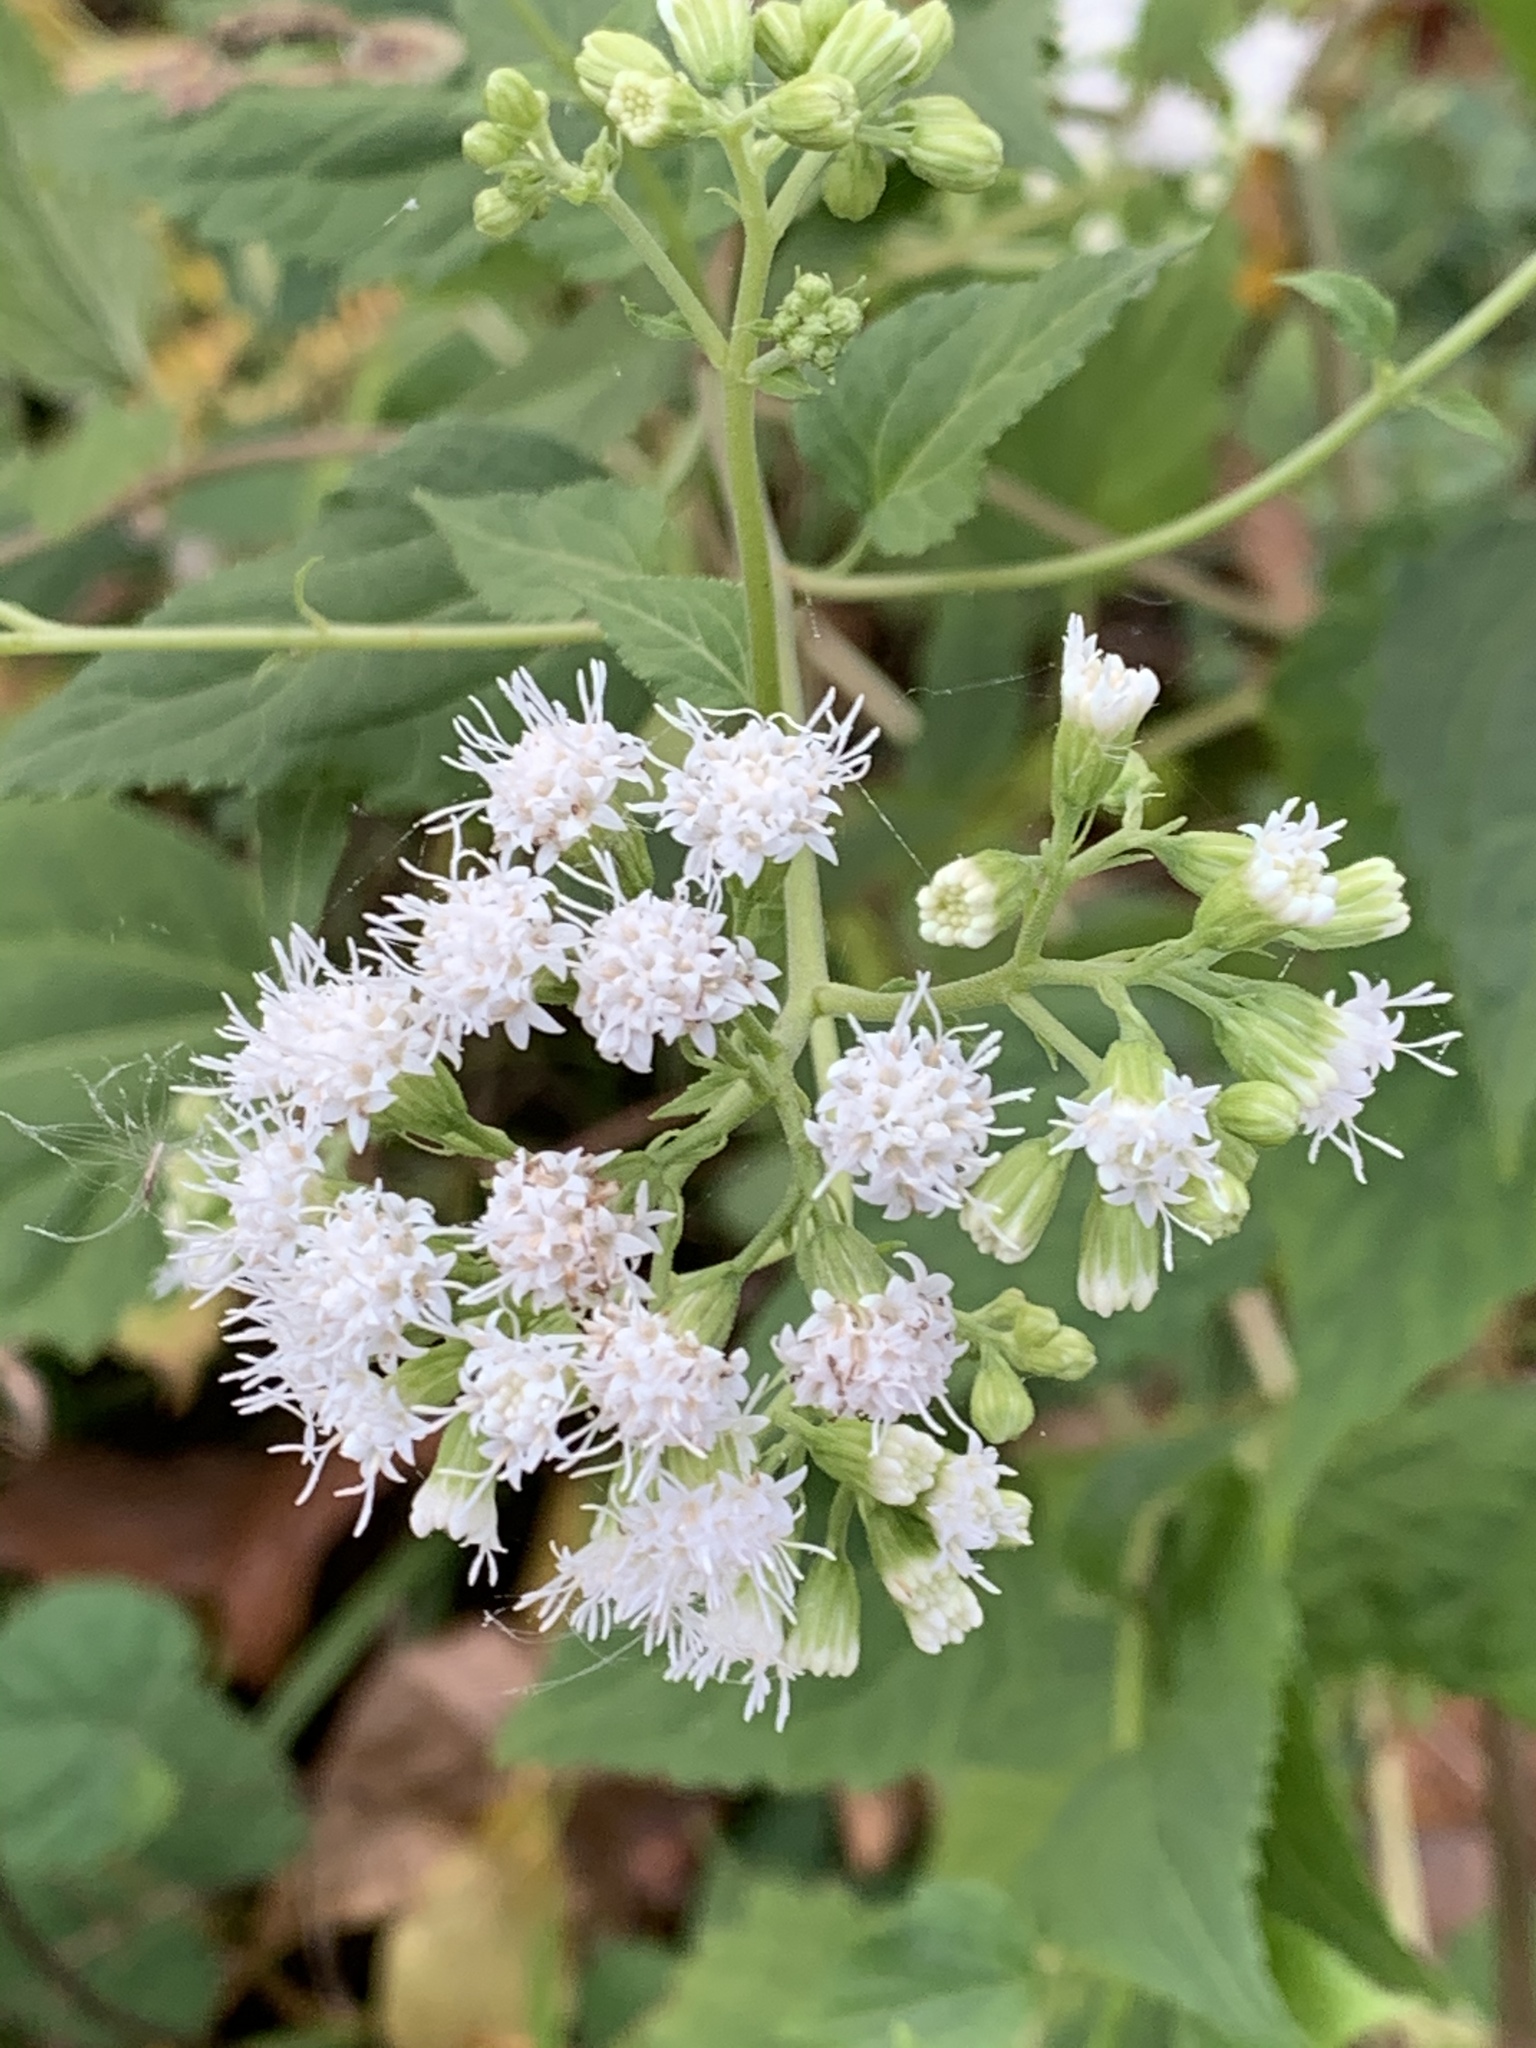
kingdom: Plantae
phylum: Tracheophyta
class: Magnoliopsida
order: Asterales
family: Asteraceae
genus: Ageratina
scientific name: Ageratina altissima
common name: White snakeroot
